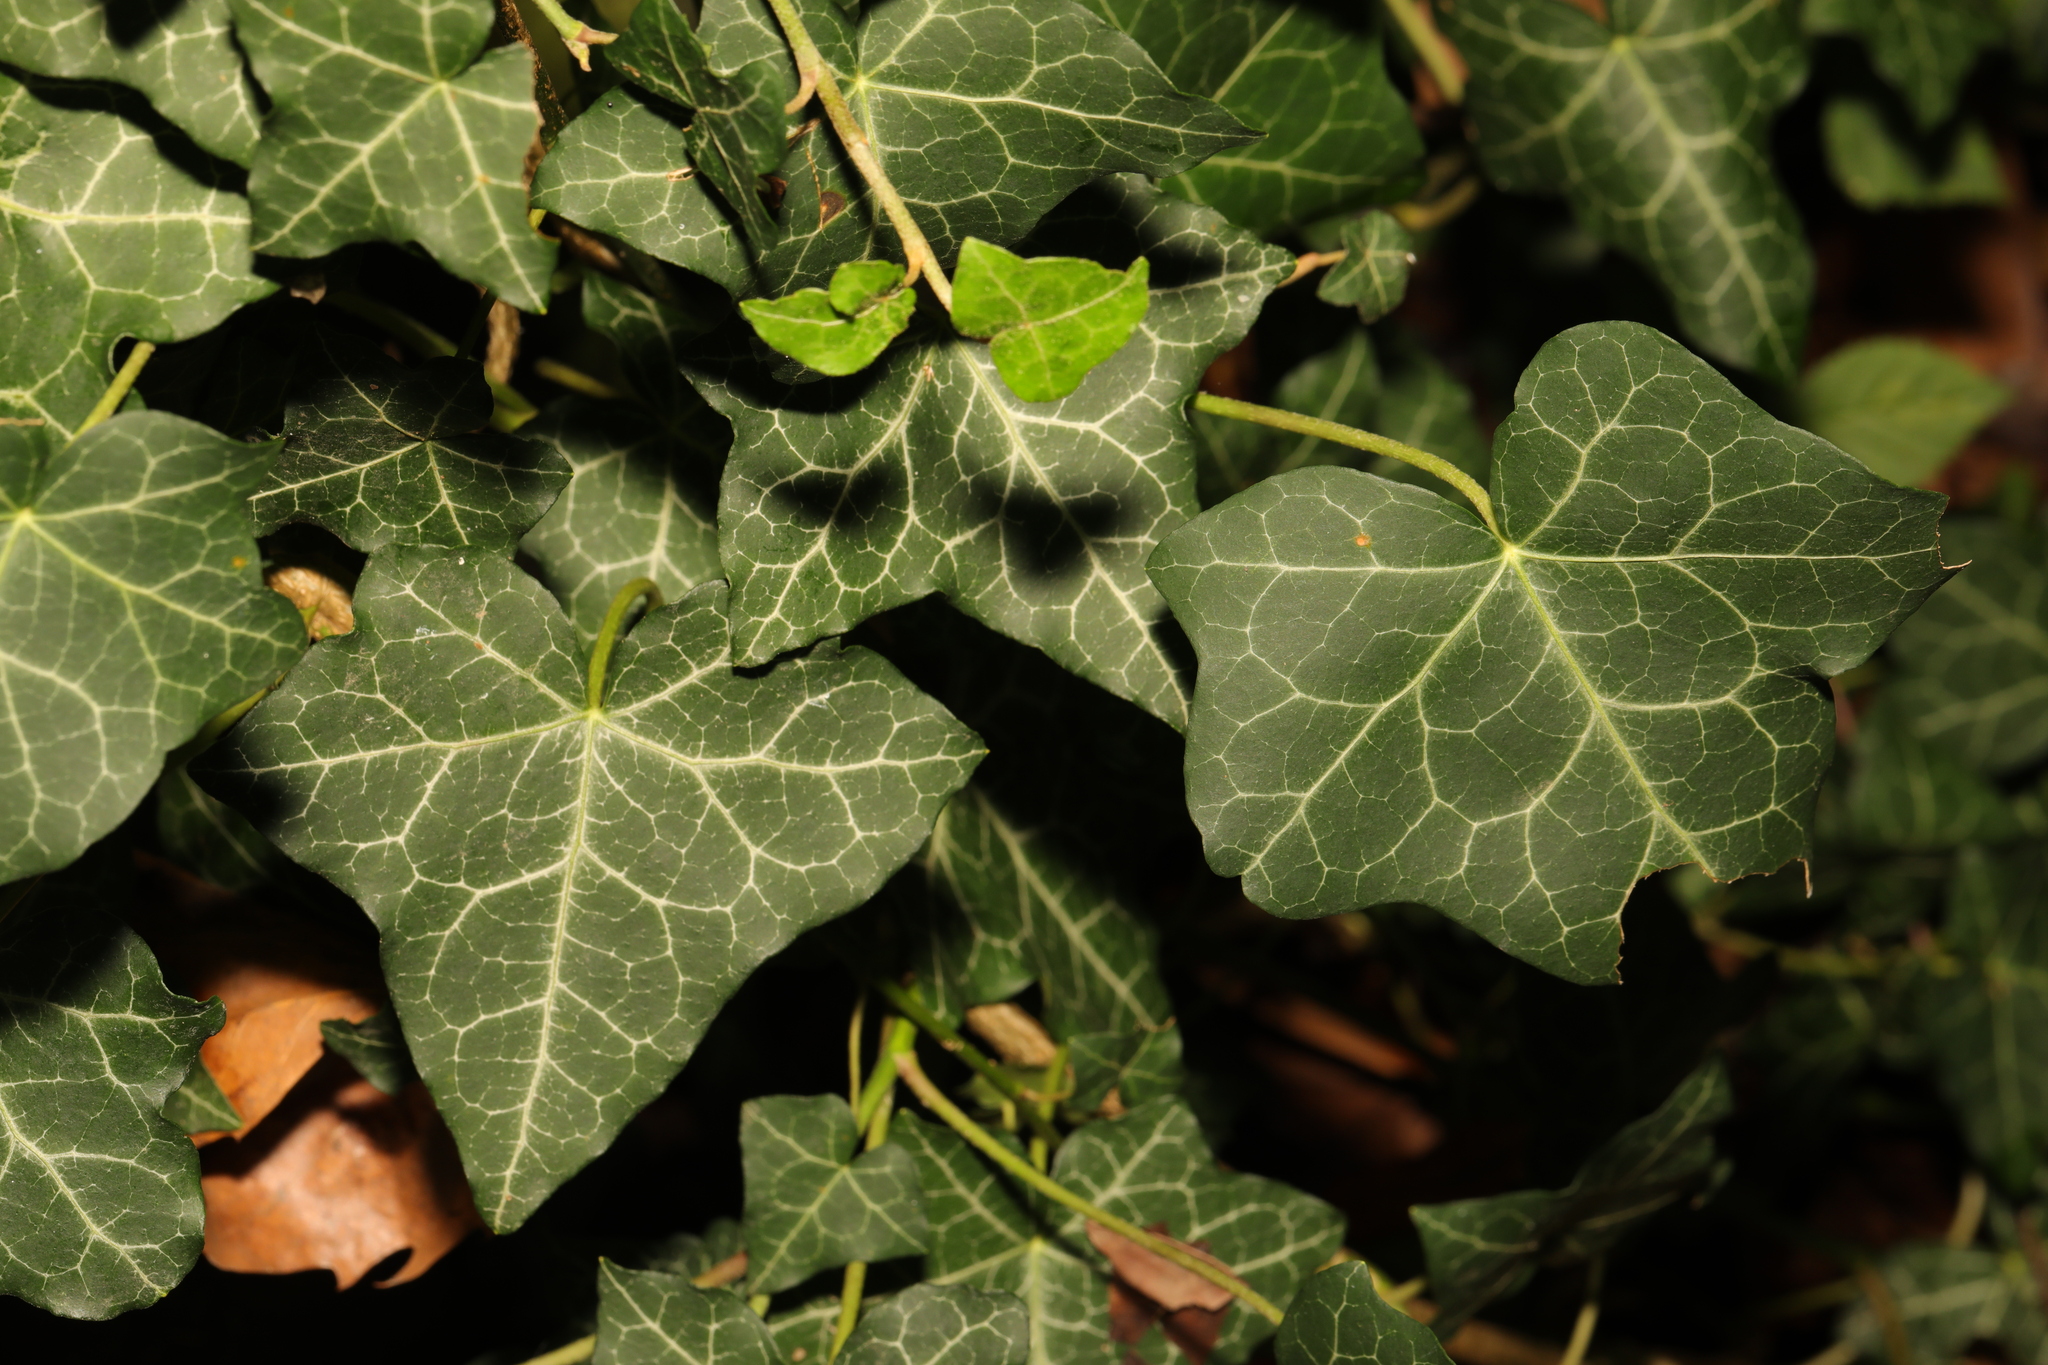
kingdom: Plantae
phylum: Tracheophyta
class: Magnoliopsida
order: Apiales
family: Araliaceae
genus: Hedera
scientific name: Hedera helix
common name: Ivy
